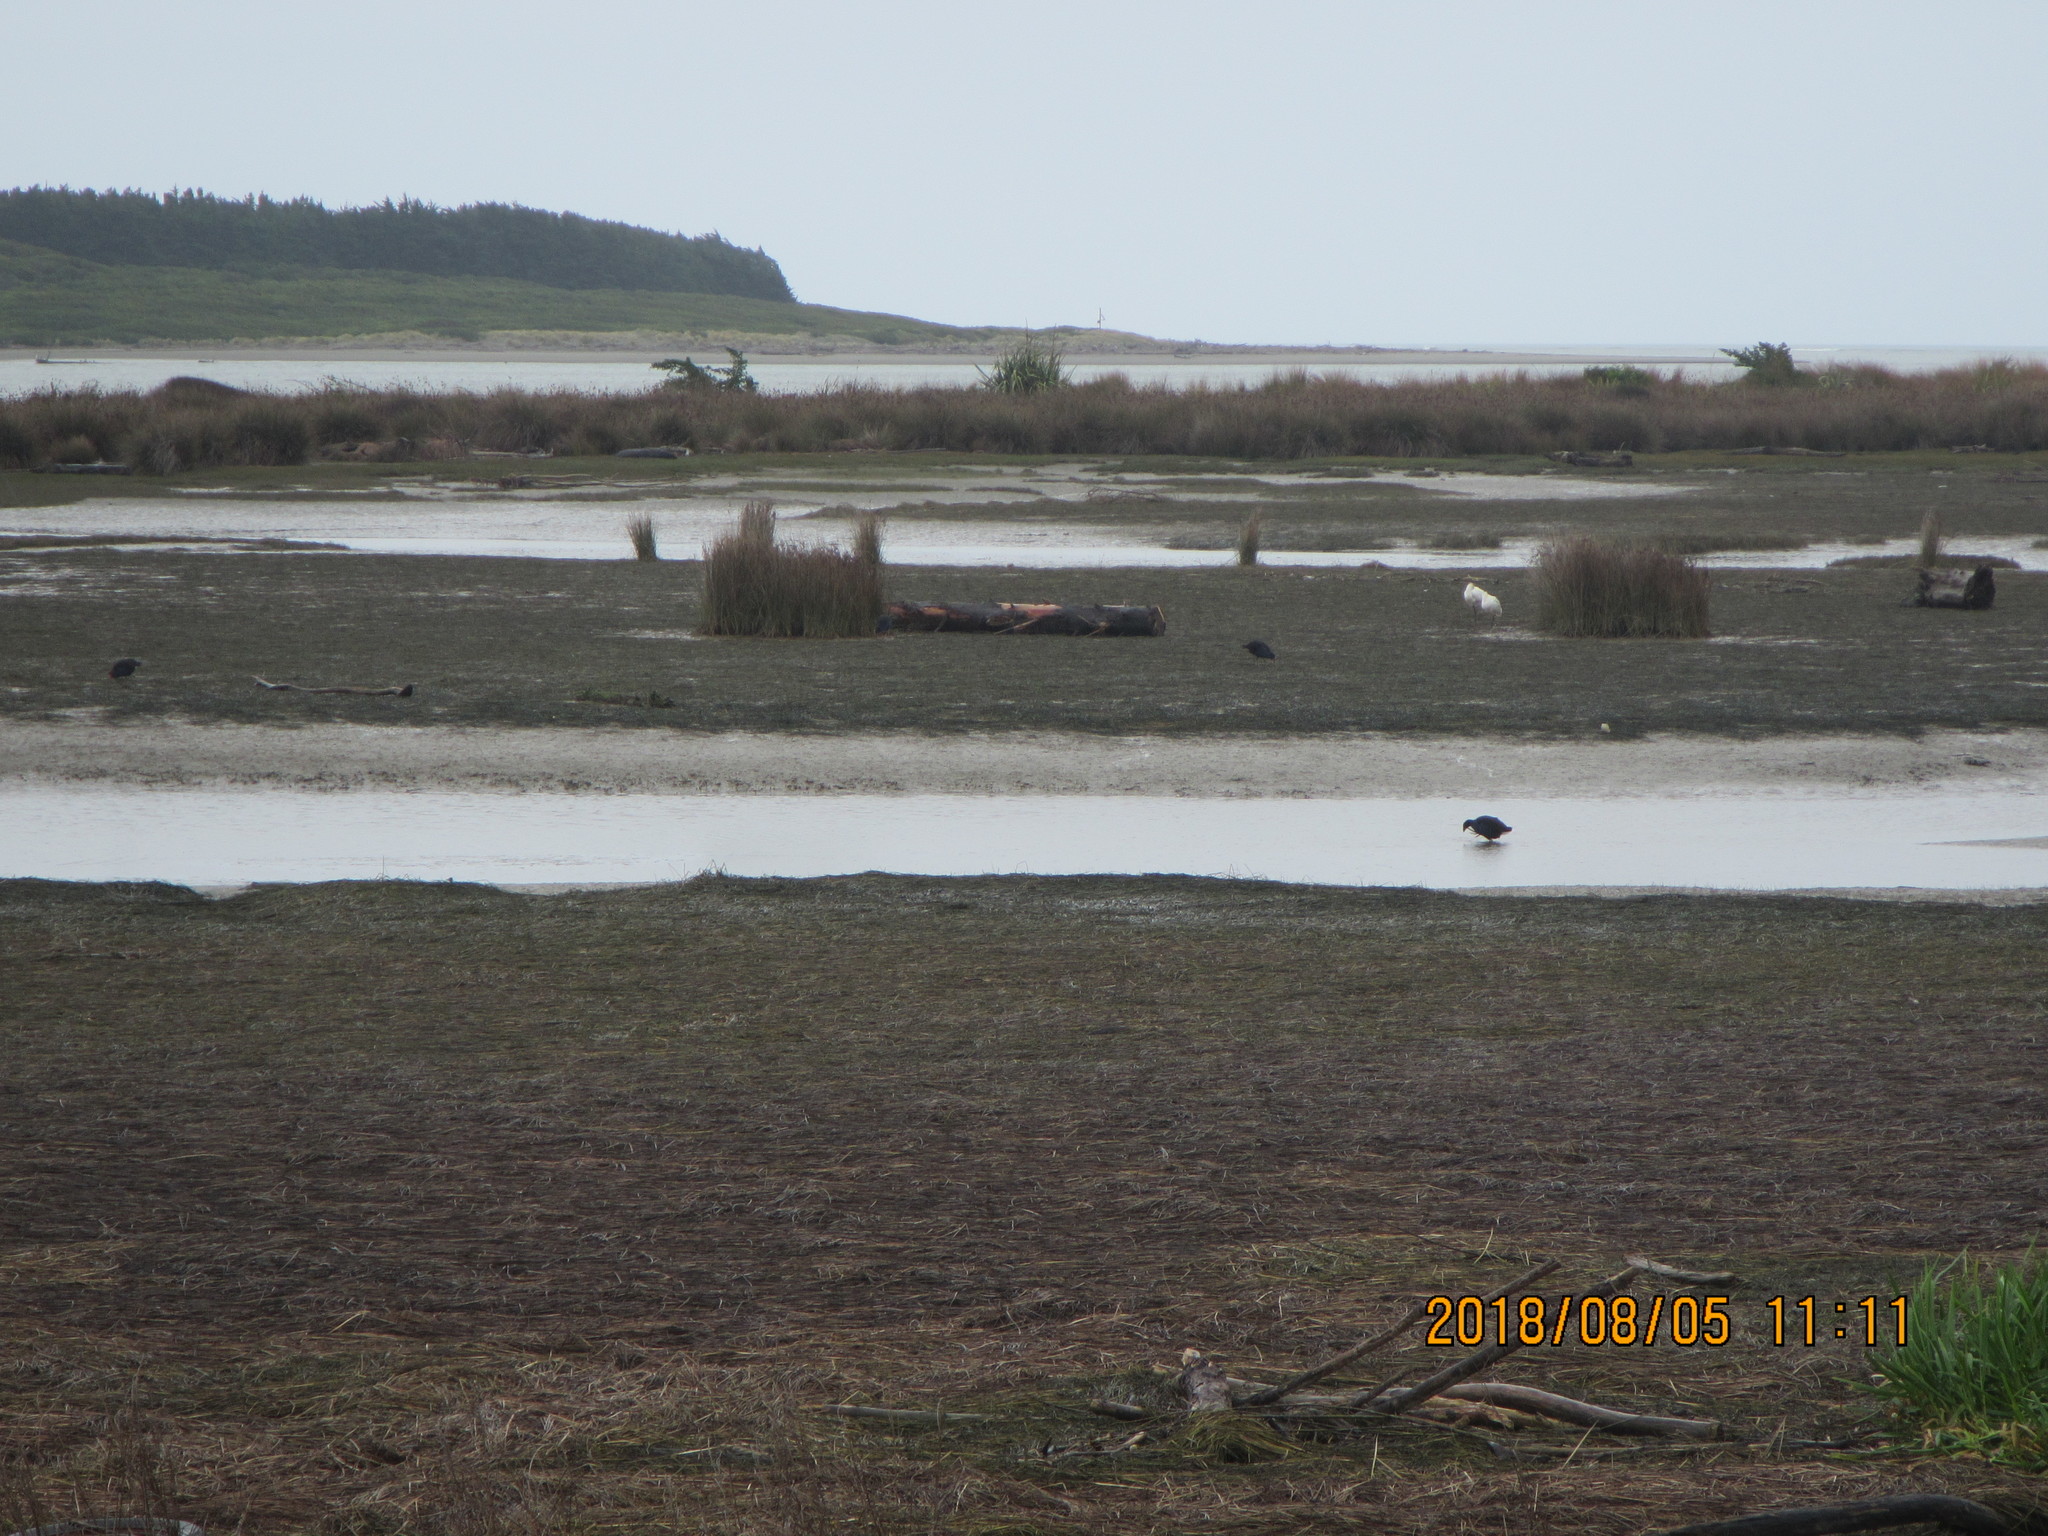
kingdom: Animalia
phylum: Chordata
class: Aves
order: Pelecaniformes
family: Threskiornithidae
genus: Platalea
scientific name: Platalea regia
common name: Royal spoonbill
